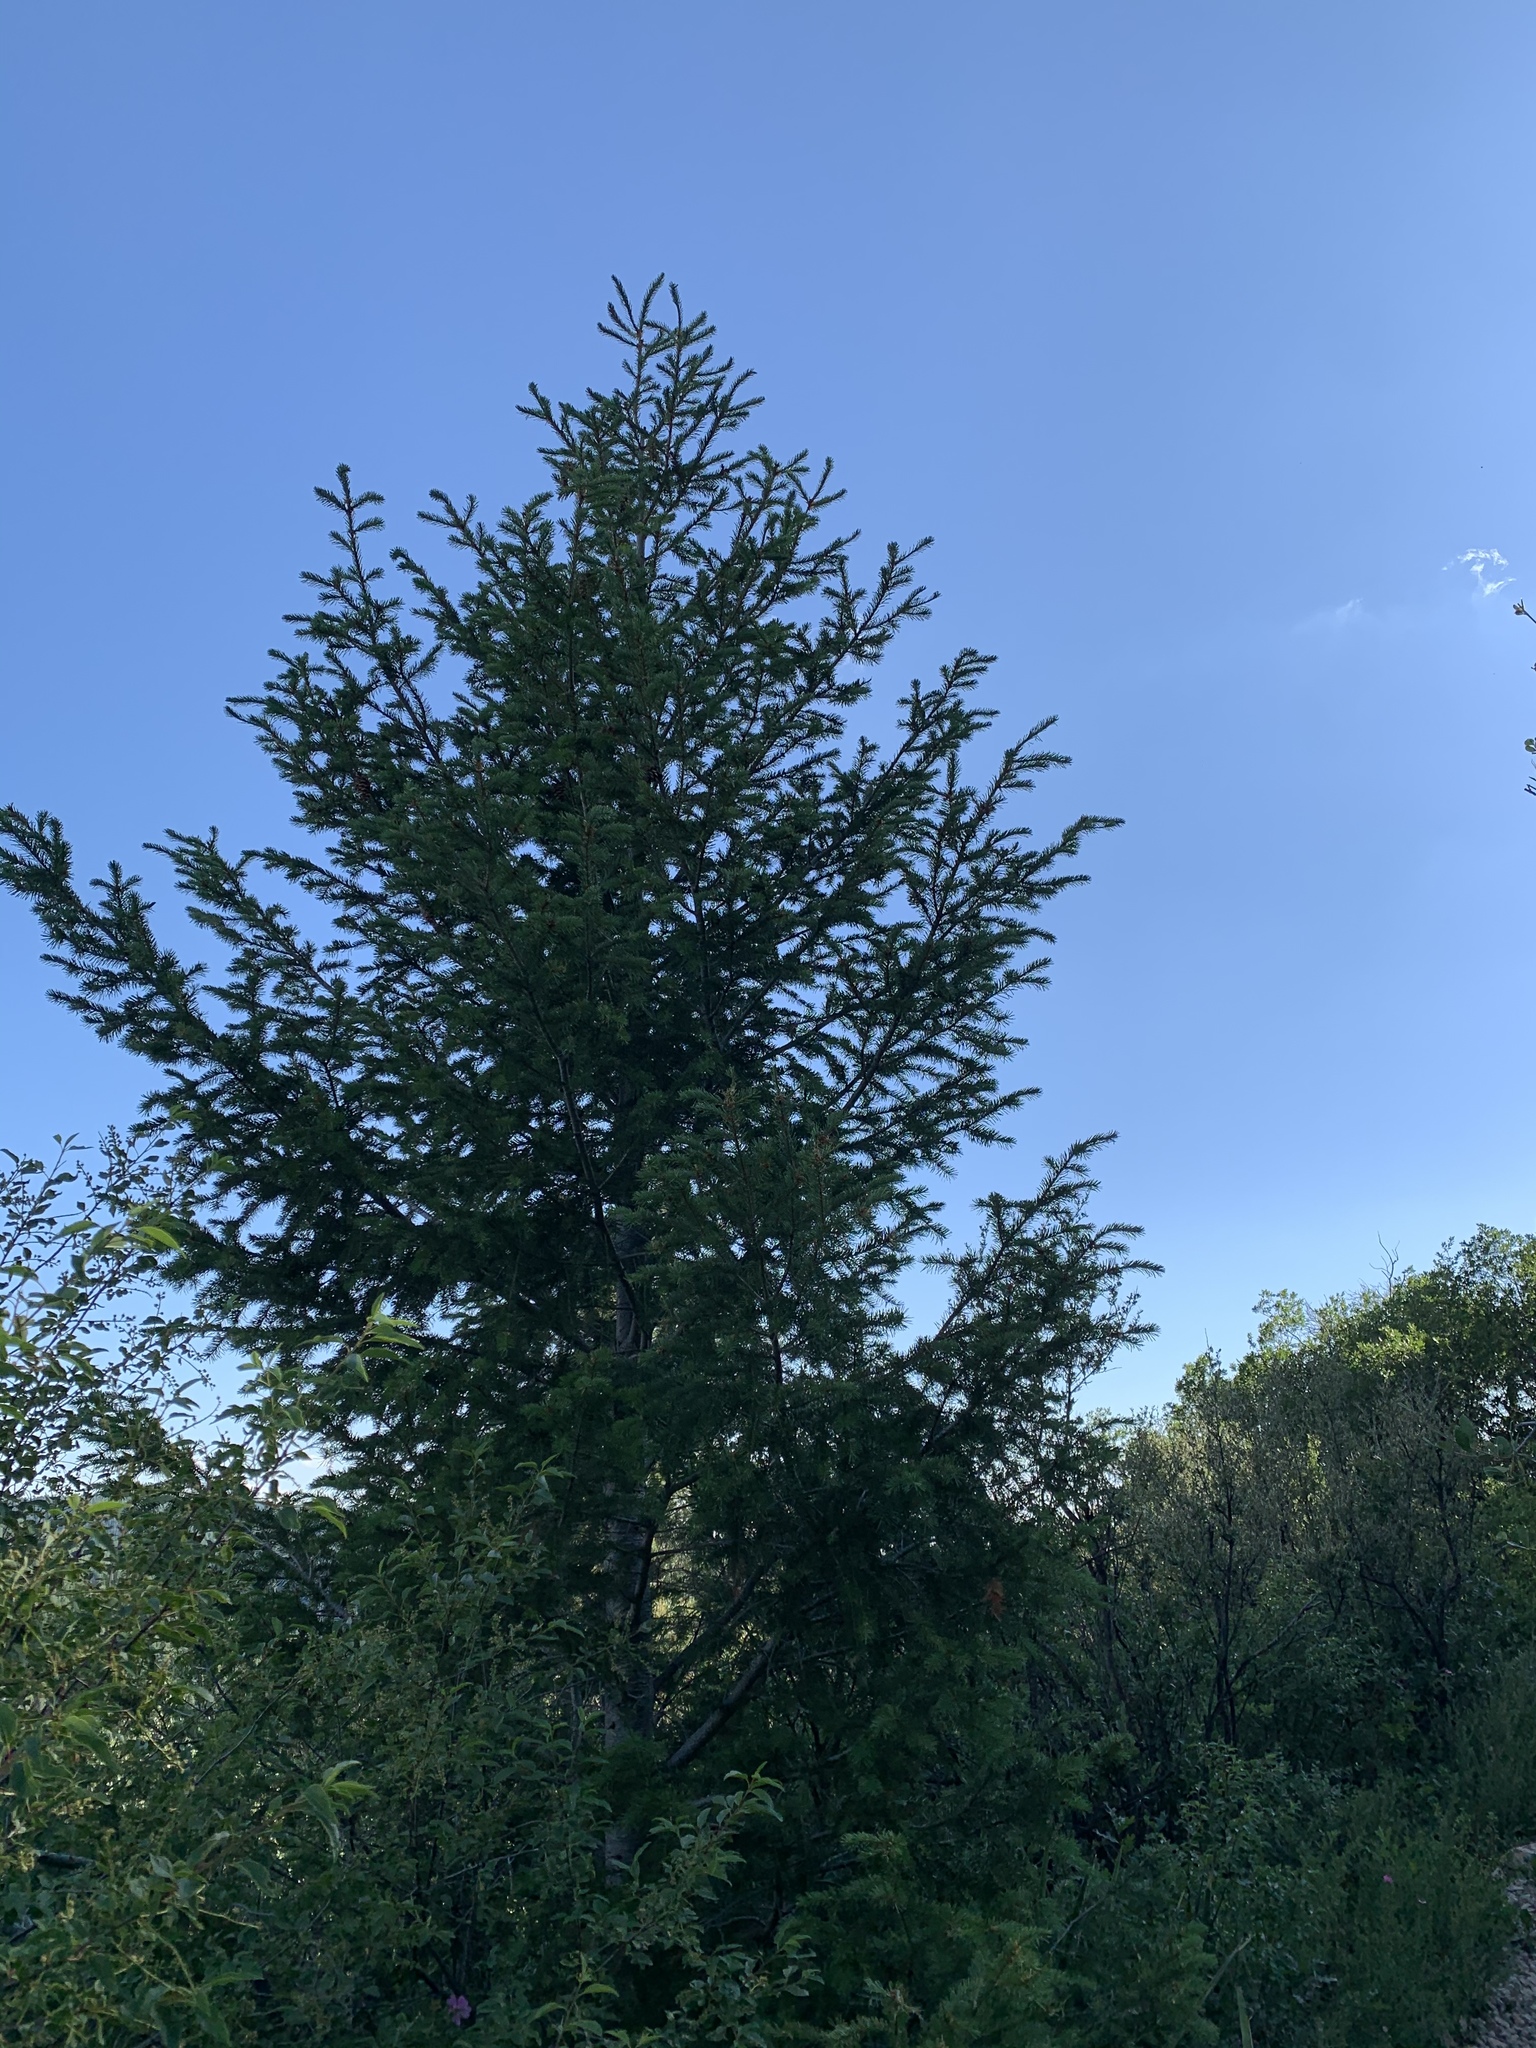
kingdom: Plantae
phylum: Tracheophyta
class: Pinopsida
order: Pinales
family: Pinaceae
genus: Pseudotsuga
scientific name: Pseudotsuga menziesii
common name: Douglas fir
